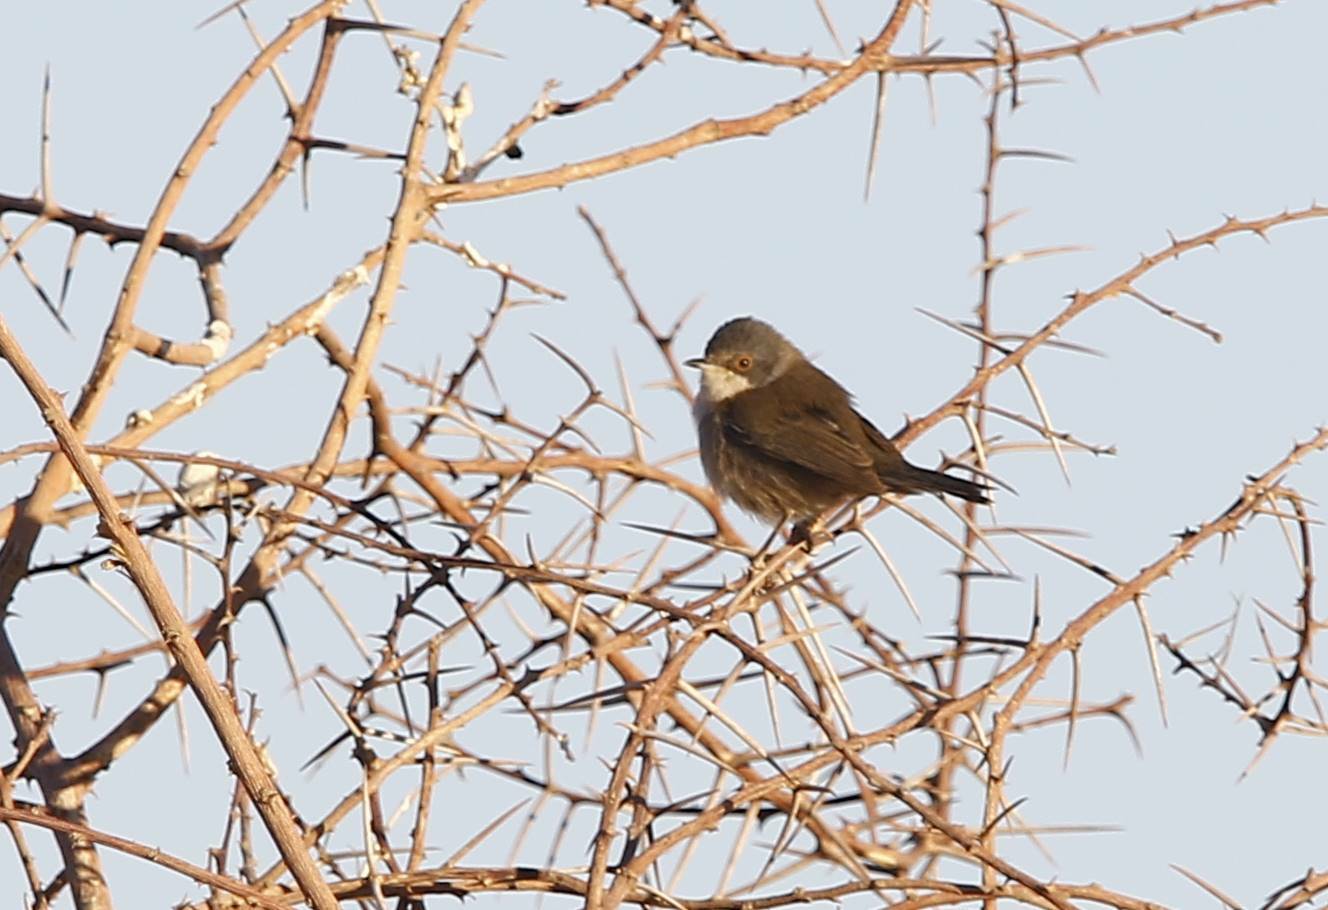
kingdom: Animalia
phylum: Chordata
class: Aves
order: Passeriformes
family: Sylviidae
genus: Curruca
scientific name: Curruca melanocephala
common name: Sardinian warbler
